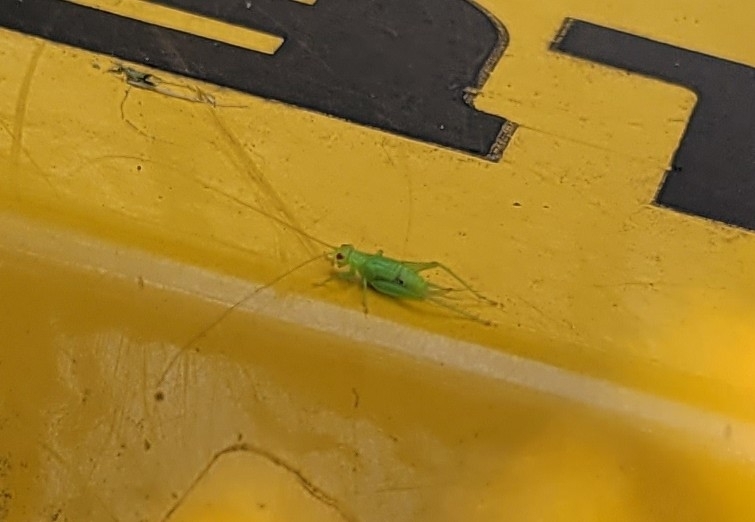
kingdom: Animalia
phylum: Arthropoda
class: Insecta
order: Orthoptera
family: Trigonidiidae
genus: Cyrtoxipha
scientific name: Cyrtoxipha columbiana
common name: Columbian trig
